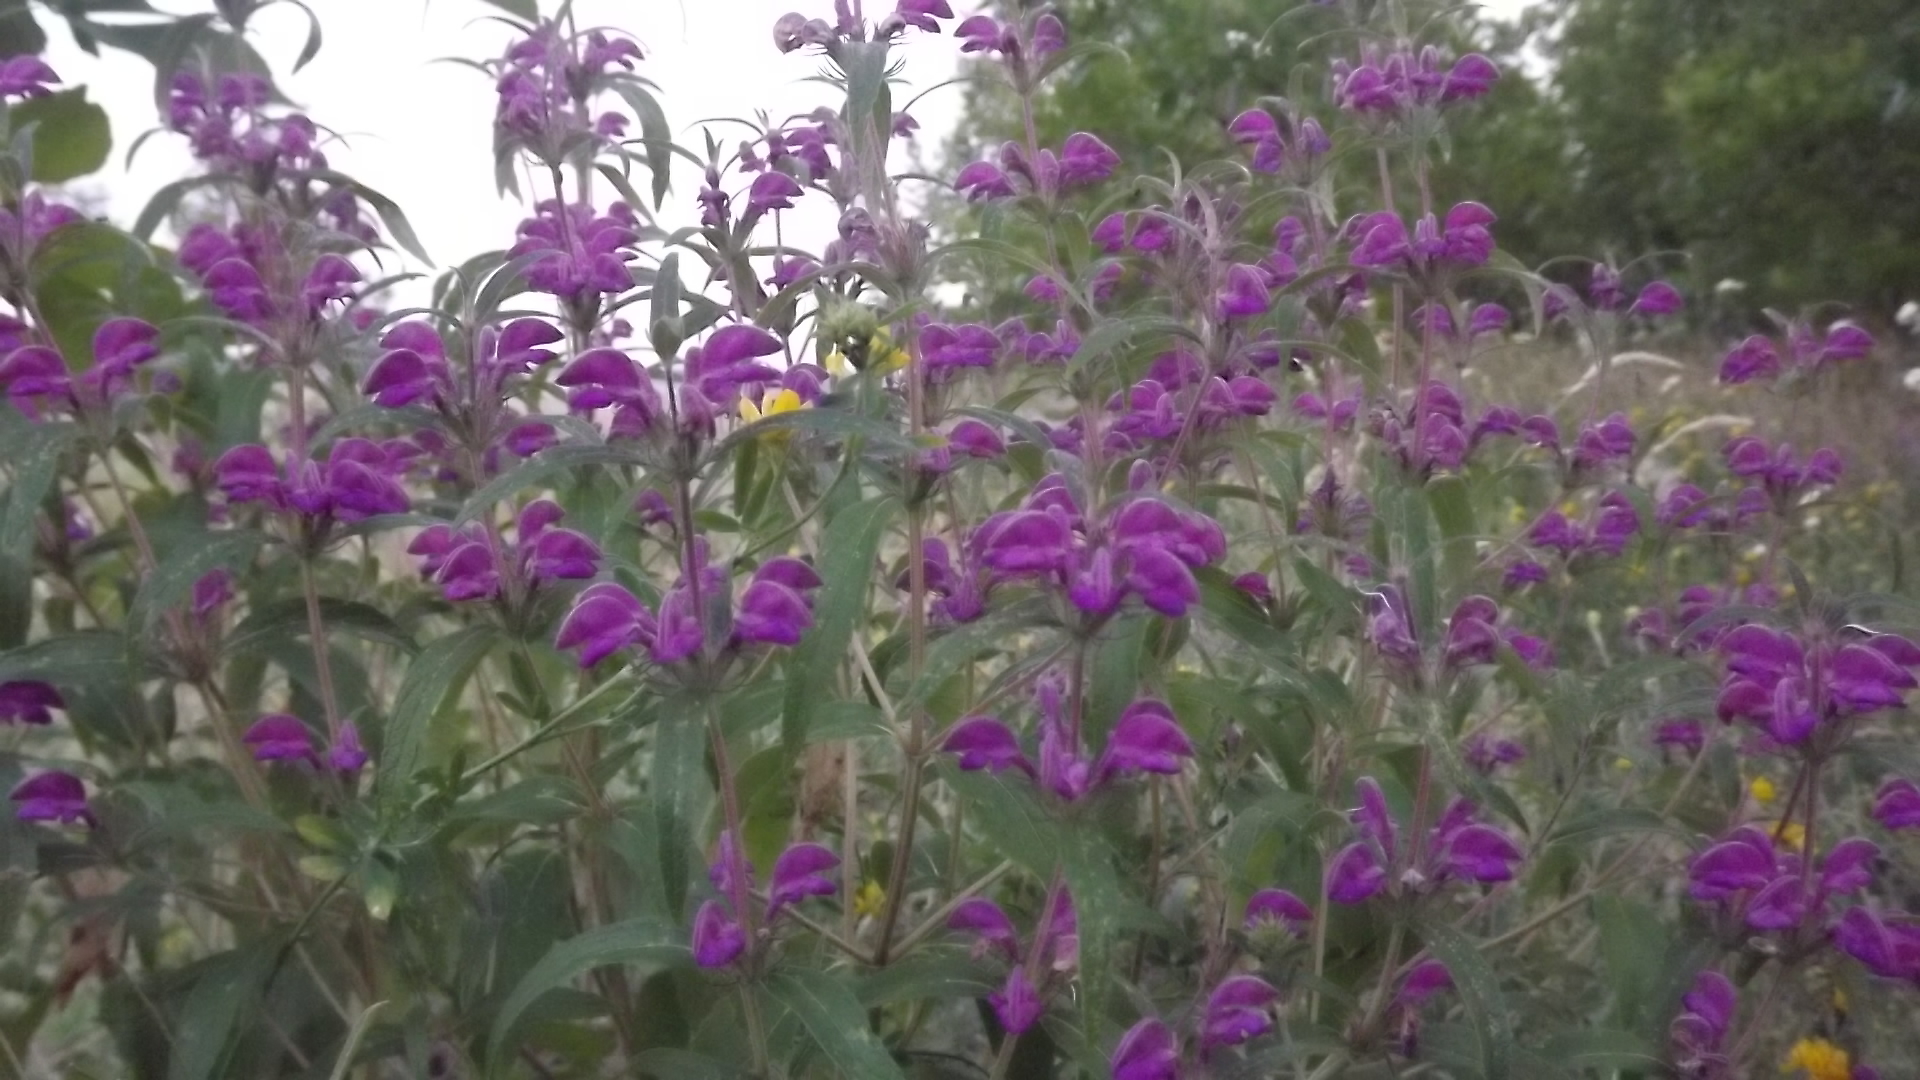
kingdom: Plantae
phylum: Tracheophyta
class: Magnoliopsida
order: Lamiales
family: Lamiaceae
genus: Phlomis
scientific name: Phlomis herba-venti
